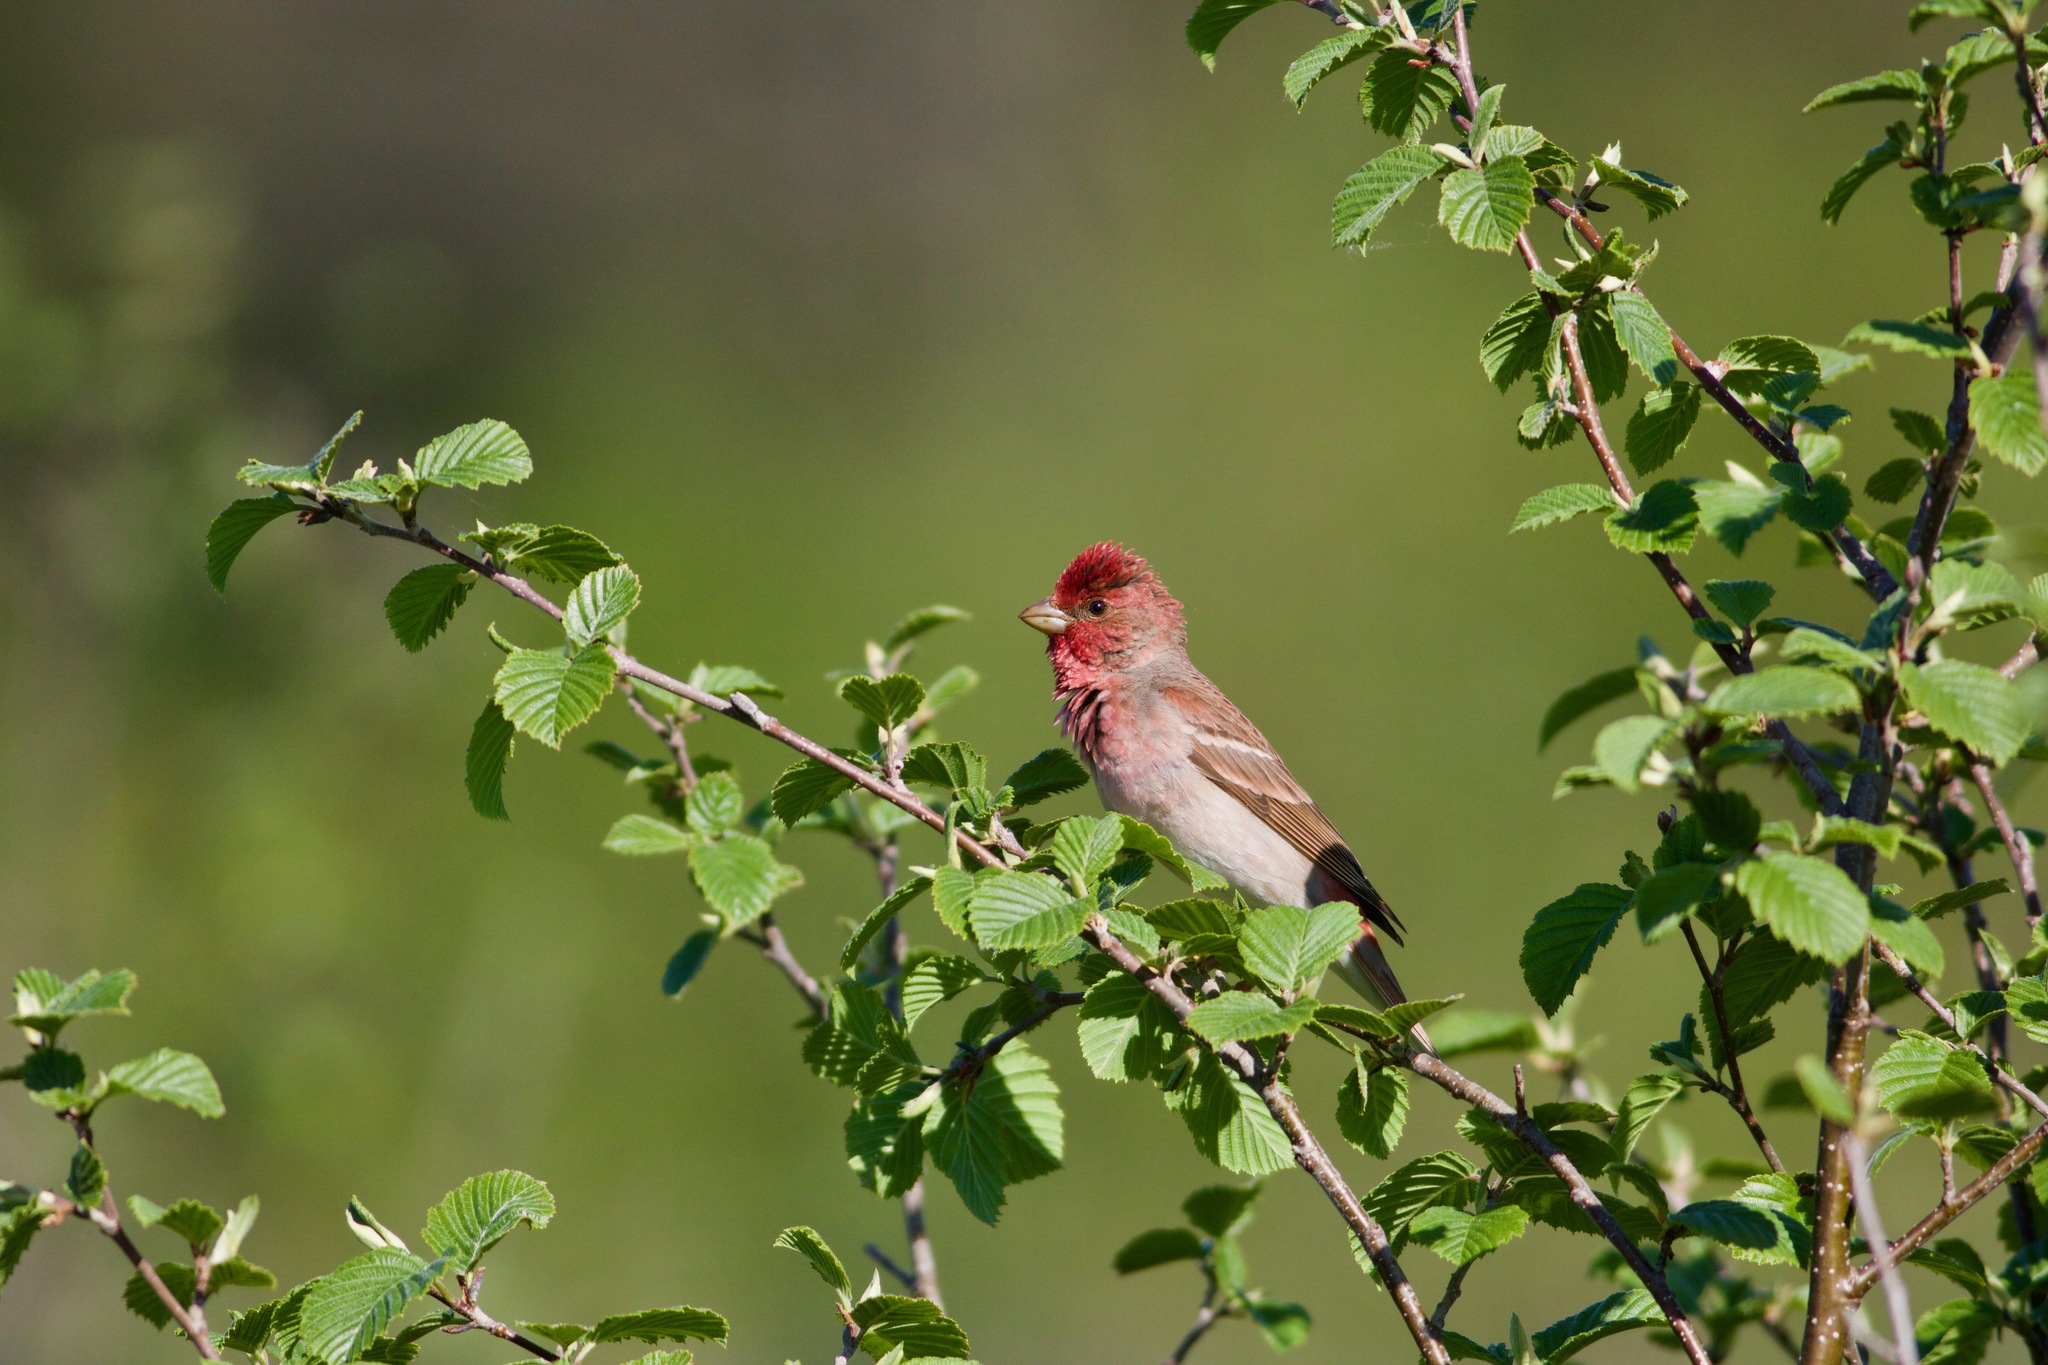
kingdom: Animalia
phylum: Chordata
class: Aves
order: Passeriformes
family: Fringillidae
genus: Carpodacus
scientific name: Carpodacus erythrinus
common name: Common rosefinch
